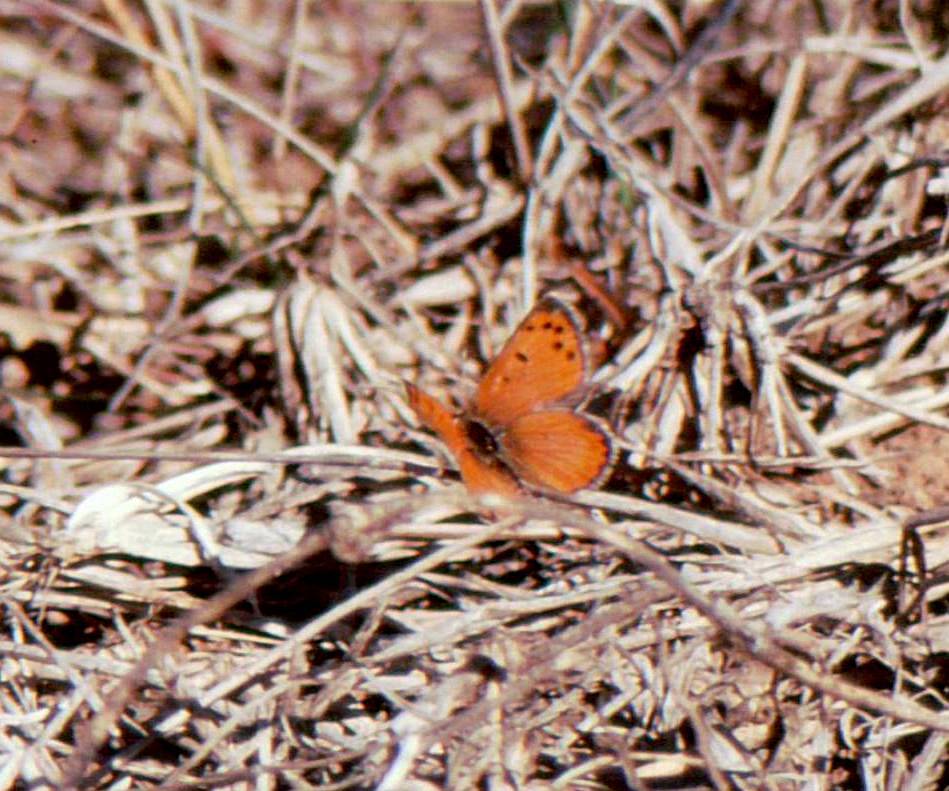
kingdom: Animalia
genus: Lafron
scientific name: Lafron
